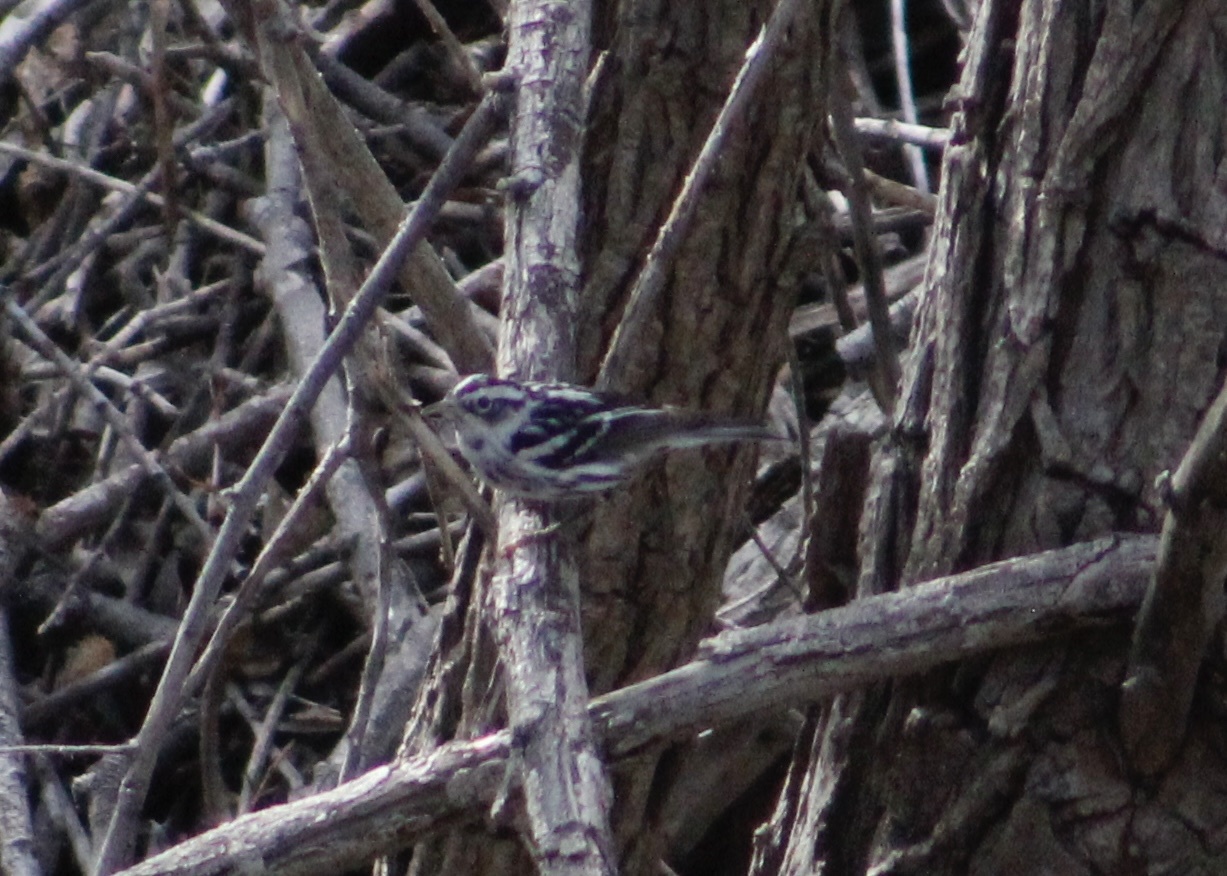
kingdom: Animalia
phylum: Chordata
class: Aves
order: Passeriformes
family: Parulidae
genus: Mniotilta
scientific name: Mniotilta varia
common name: Black-and-white warbler
